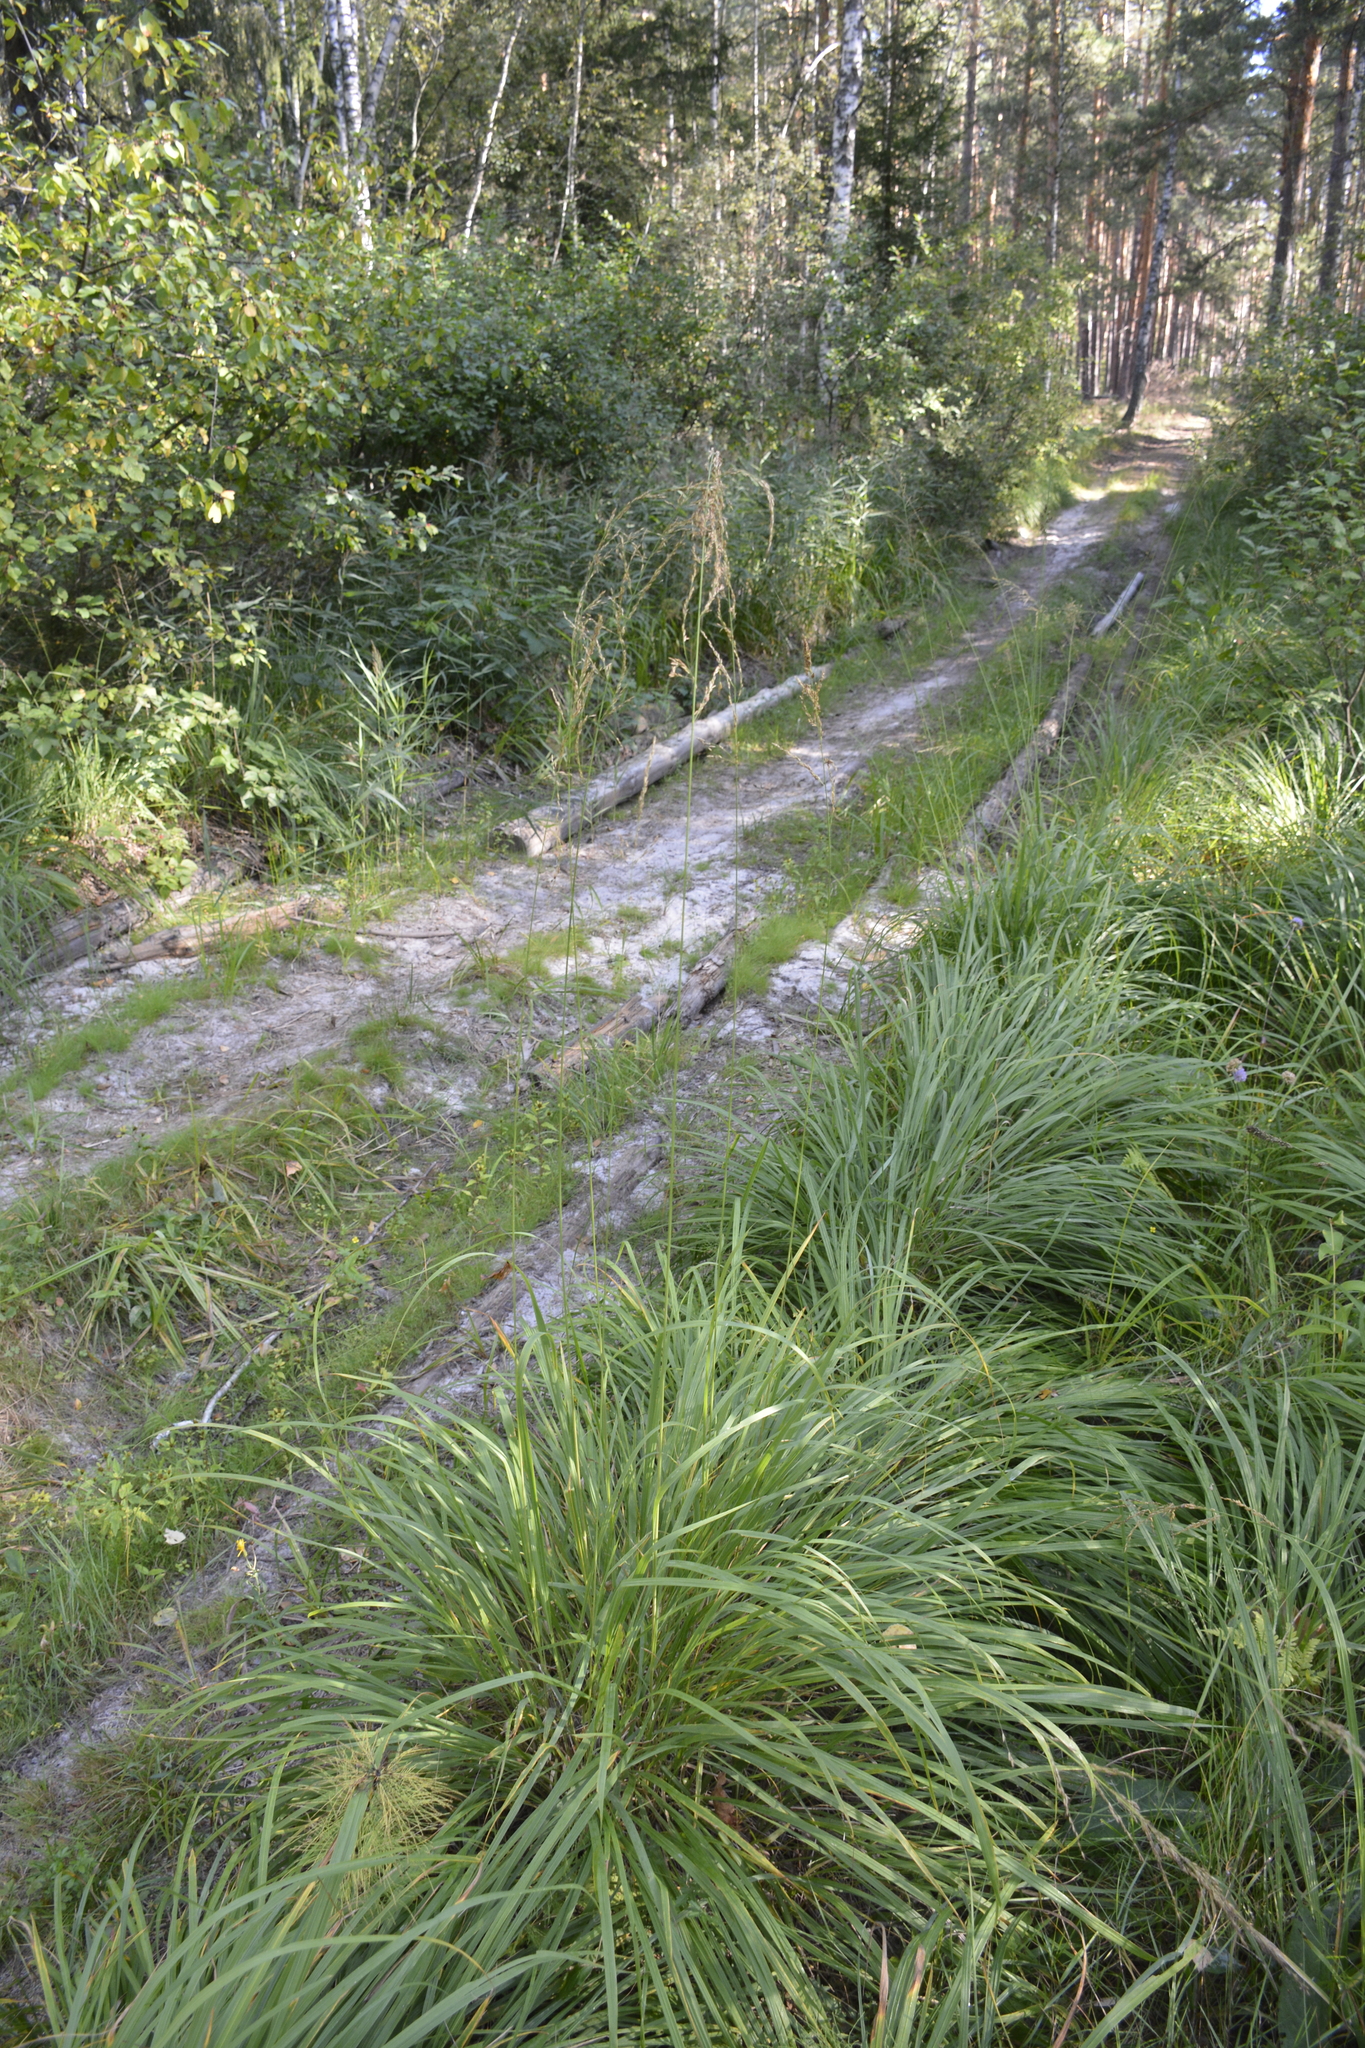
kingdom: Plantae
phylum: Tracheophyta
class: Liliopsida
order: Poales
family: Poaceae
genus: Molinia
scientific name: Molinia caerulea
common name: Purple moor-grass
